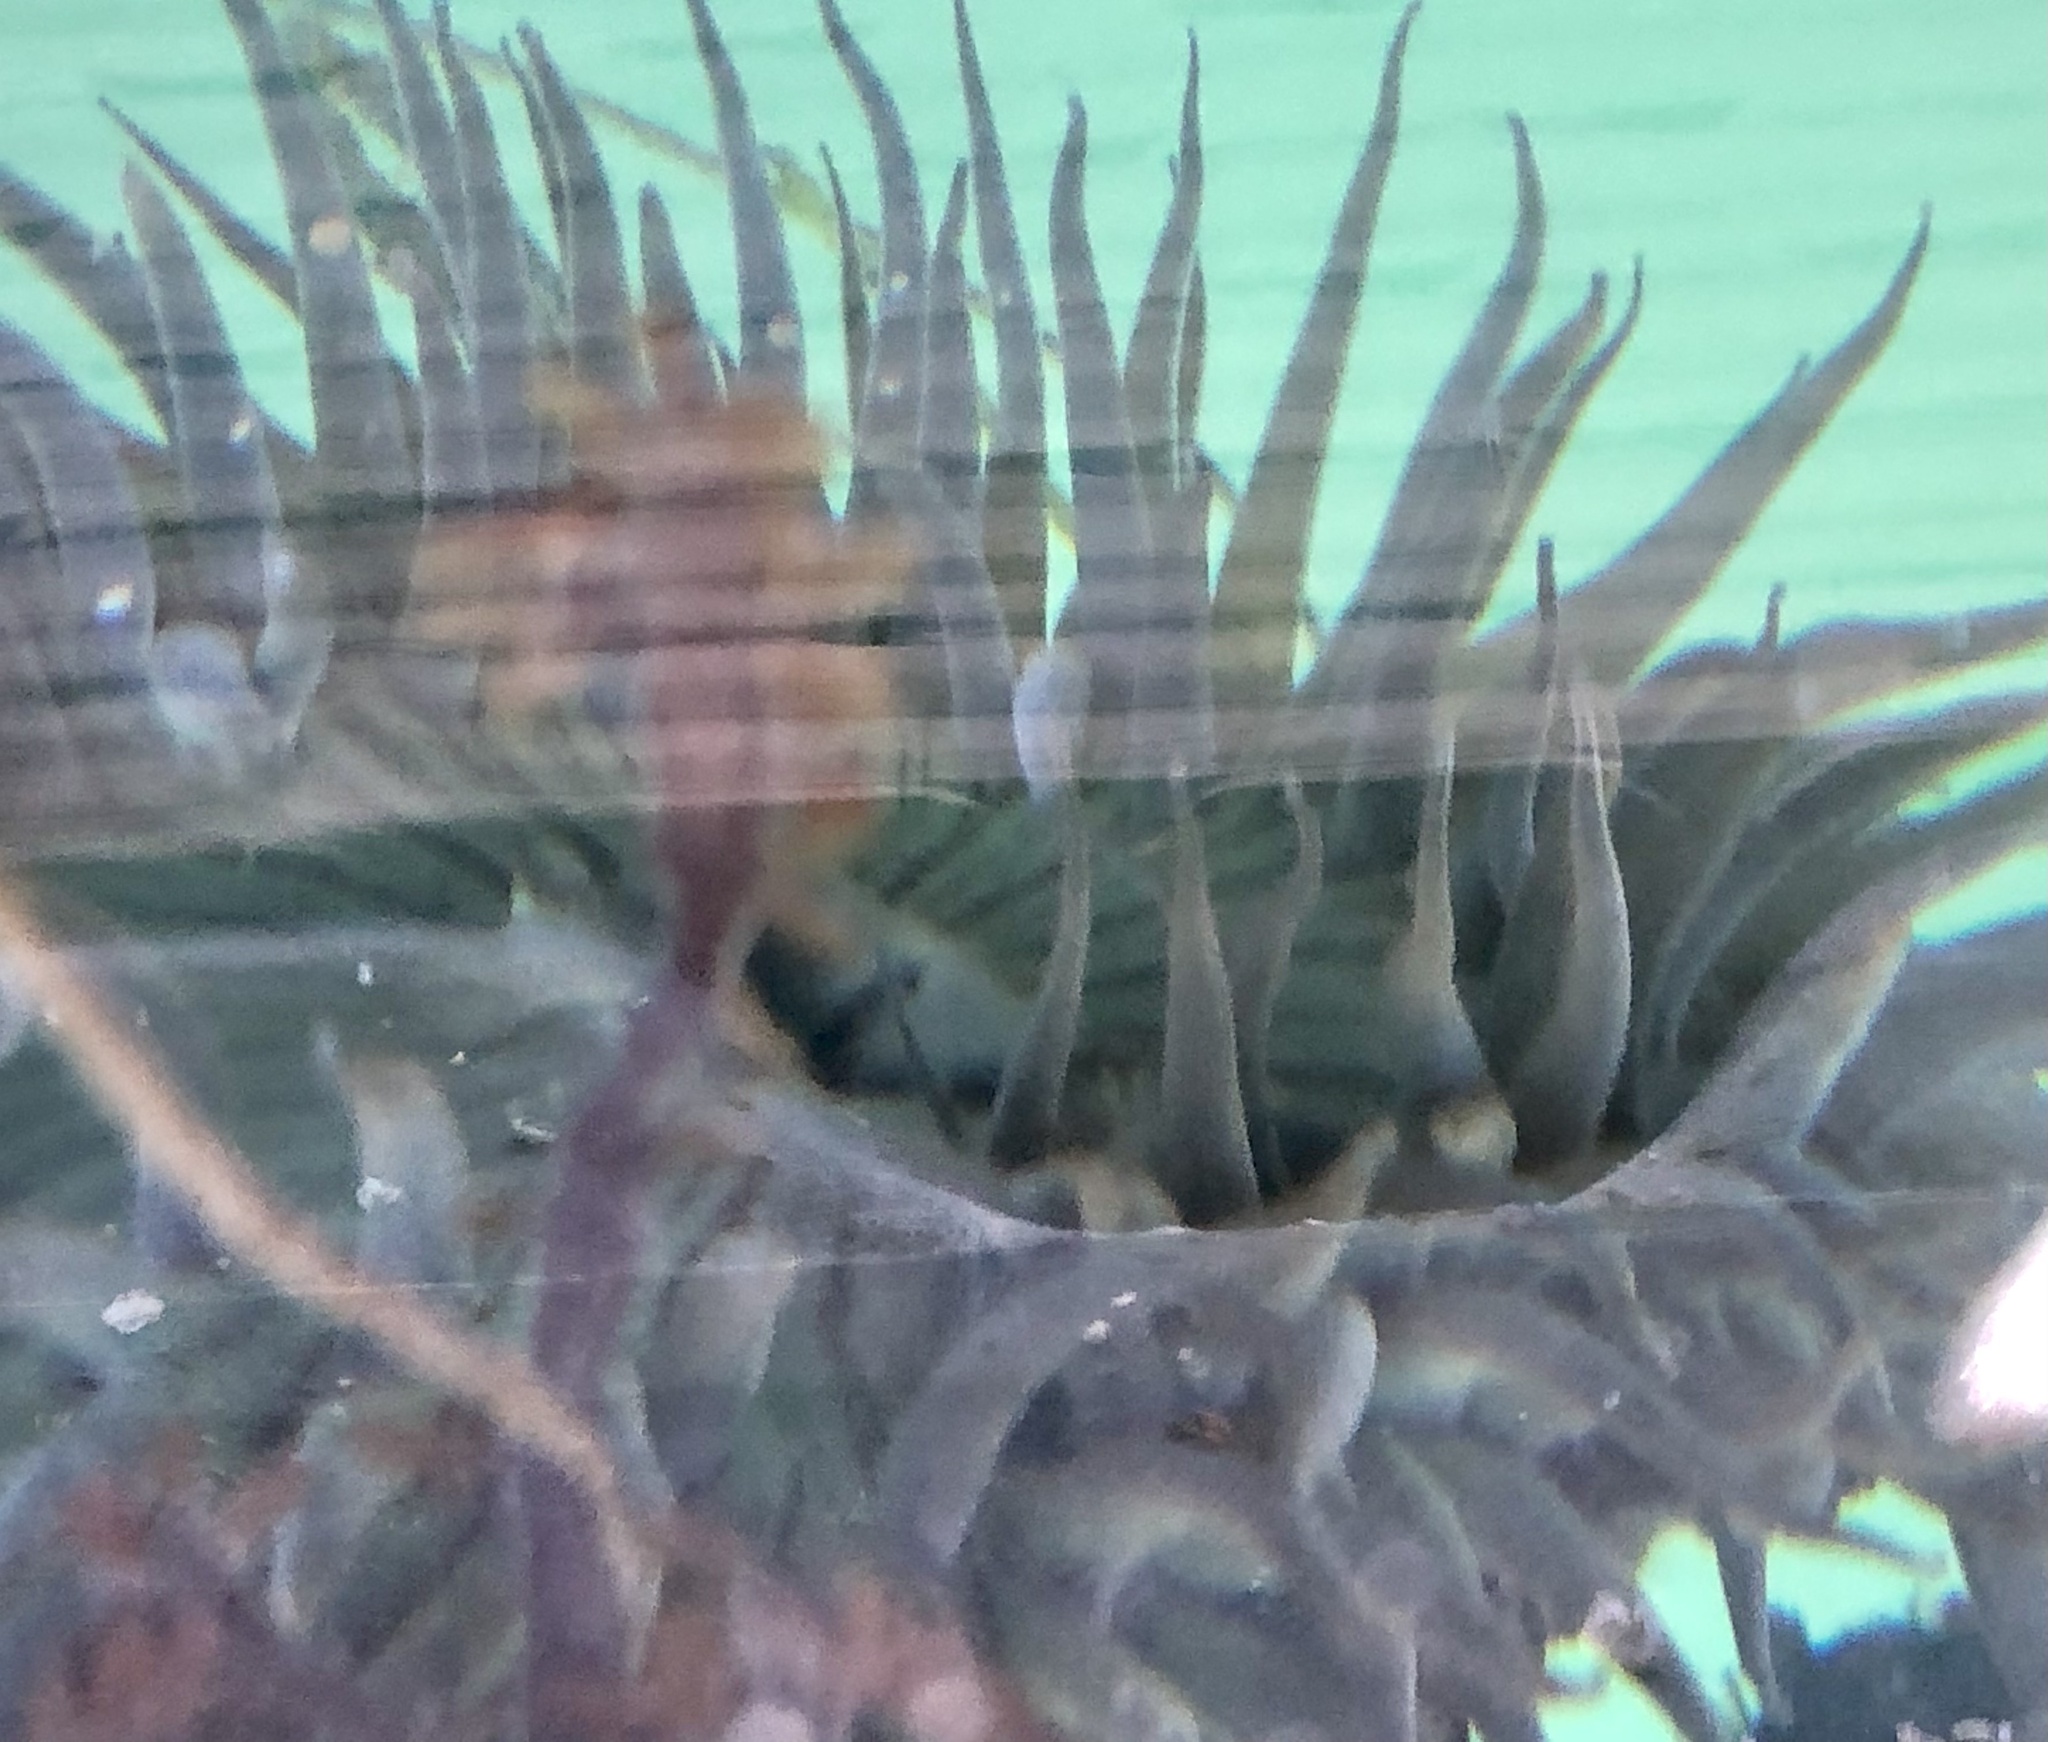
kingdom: Animalia
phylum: Cnidaria
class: Anthozoa
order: Actiniaria
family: Actiniidae
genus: Anthopleura
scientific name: Anthopleura sola
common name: Sun anemone
